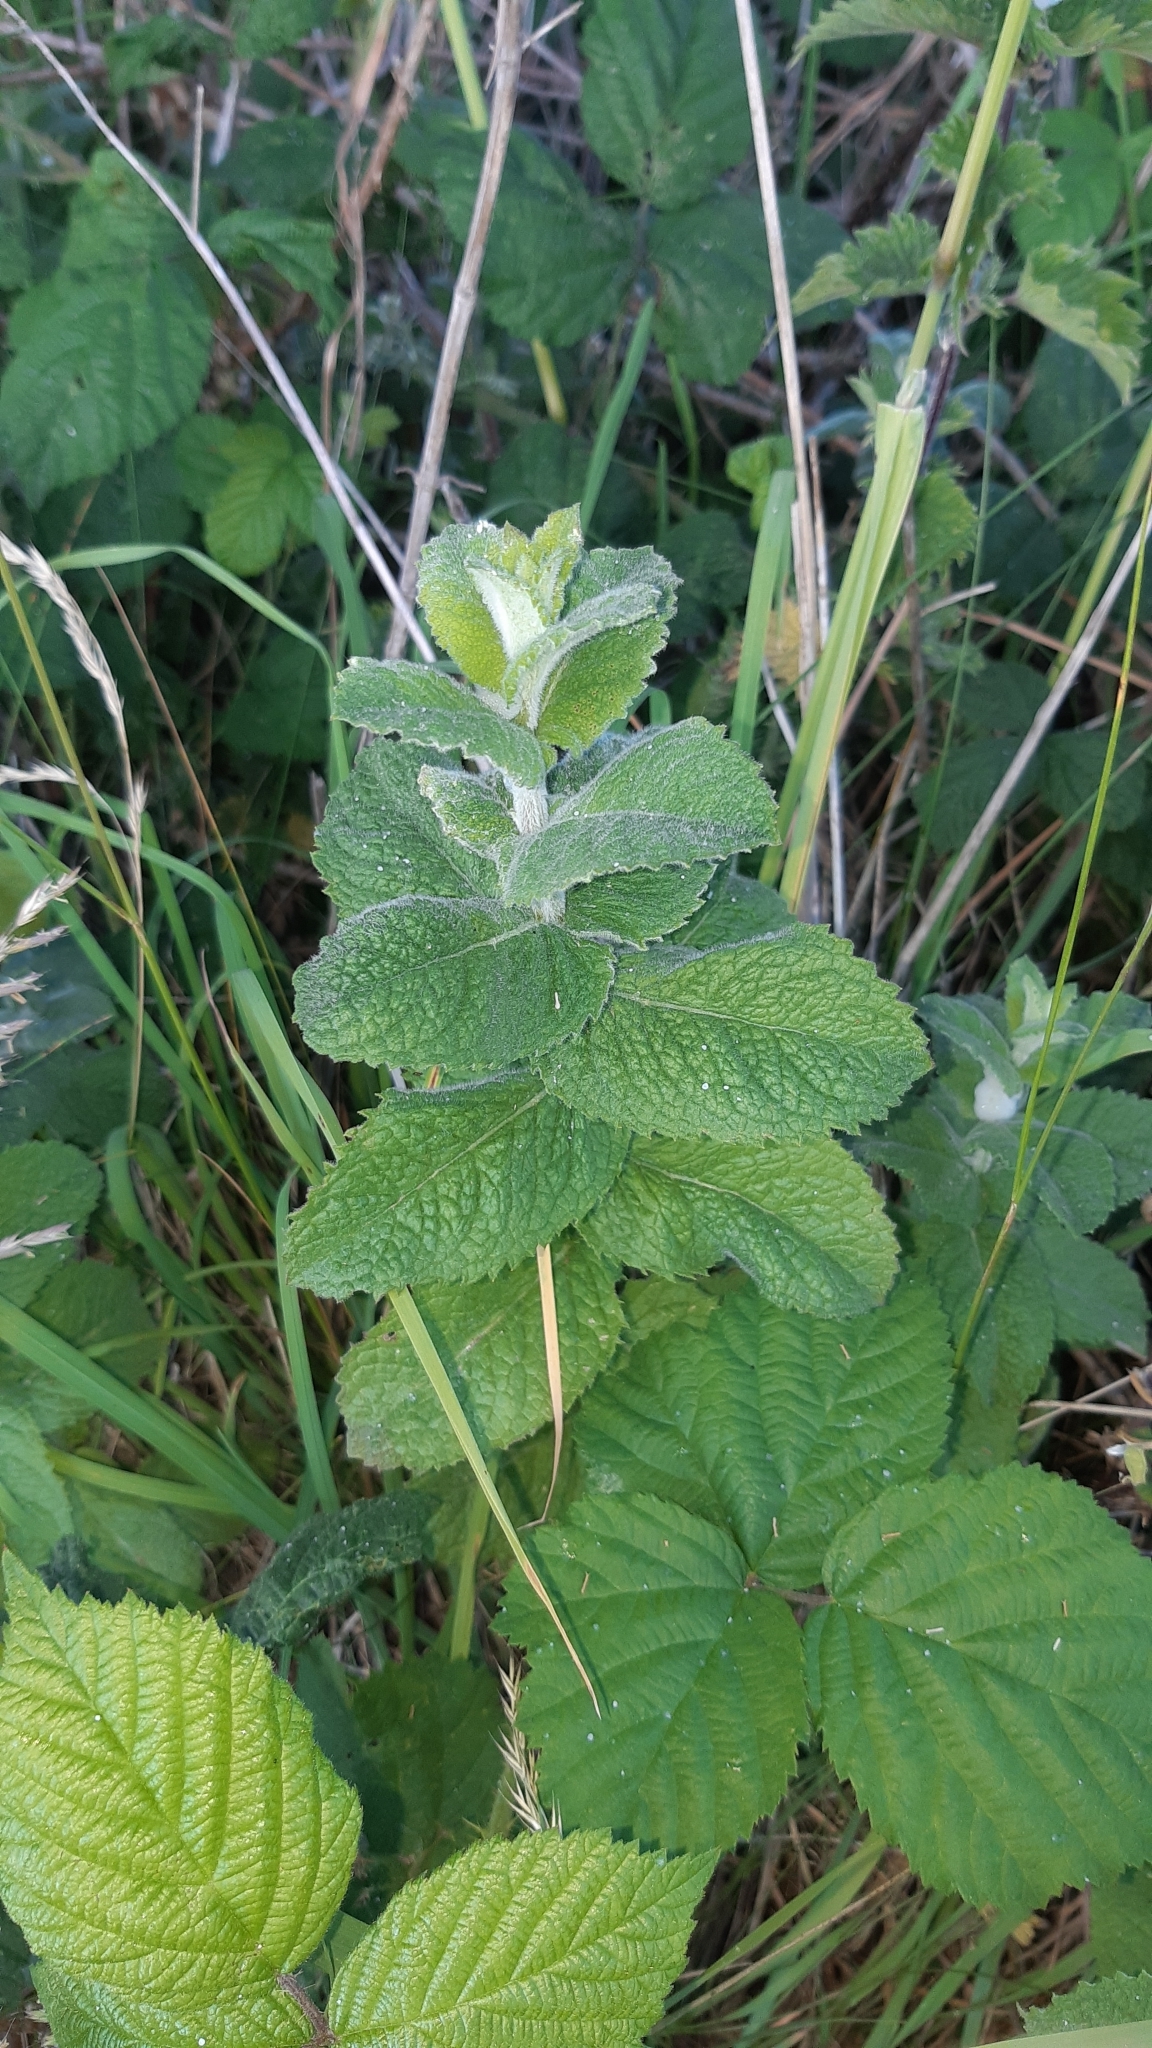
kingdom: Plantae
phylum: Tracheophyta
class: Magnoliopsida
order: Lamiales
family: Lamiaceae
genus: Mentha
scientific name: Mentha suaveolens
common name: Apple mint
